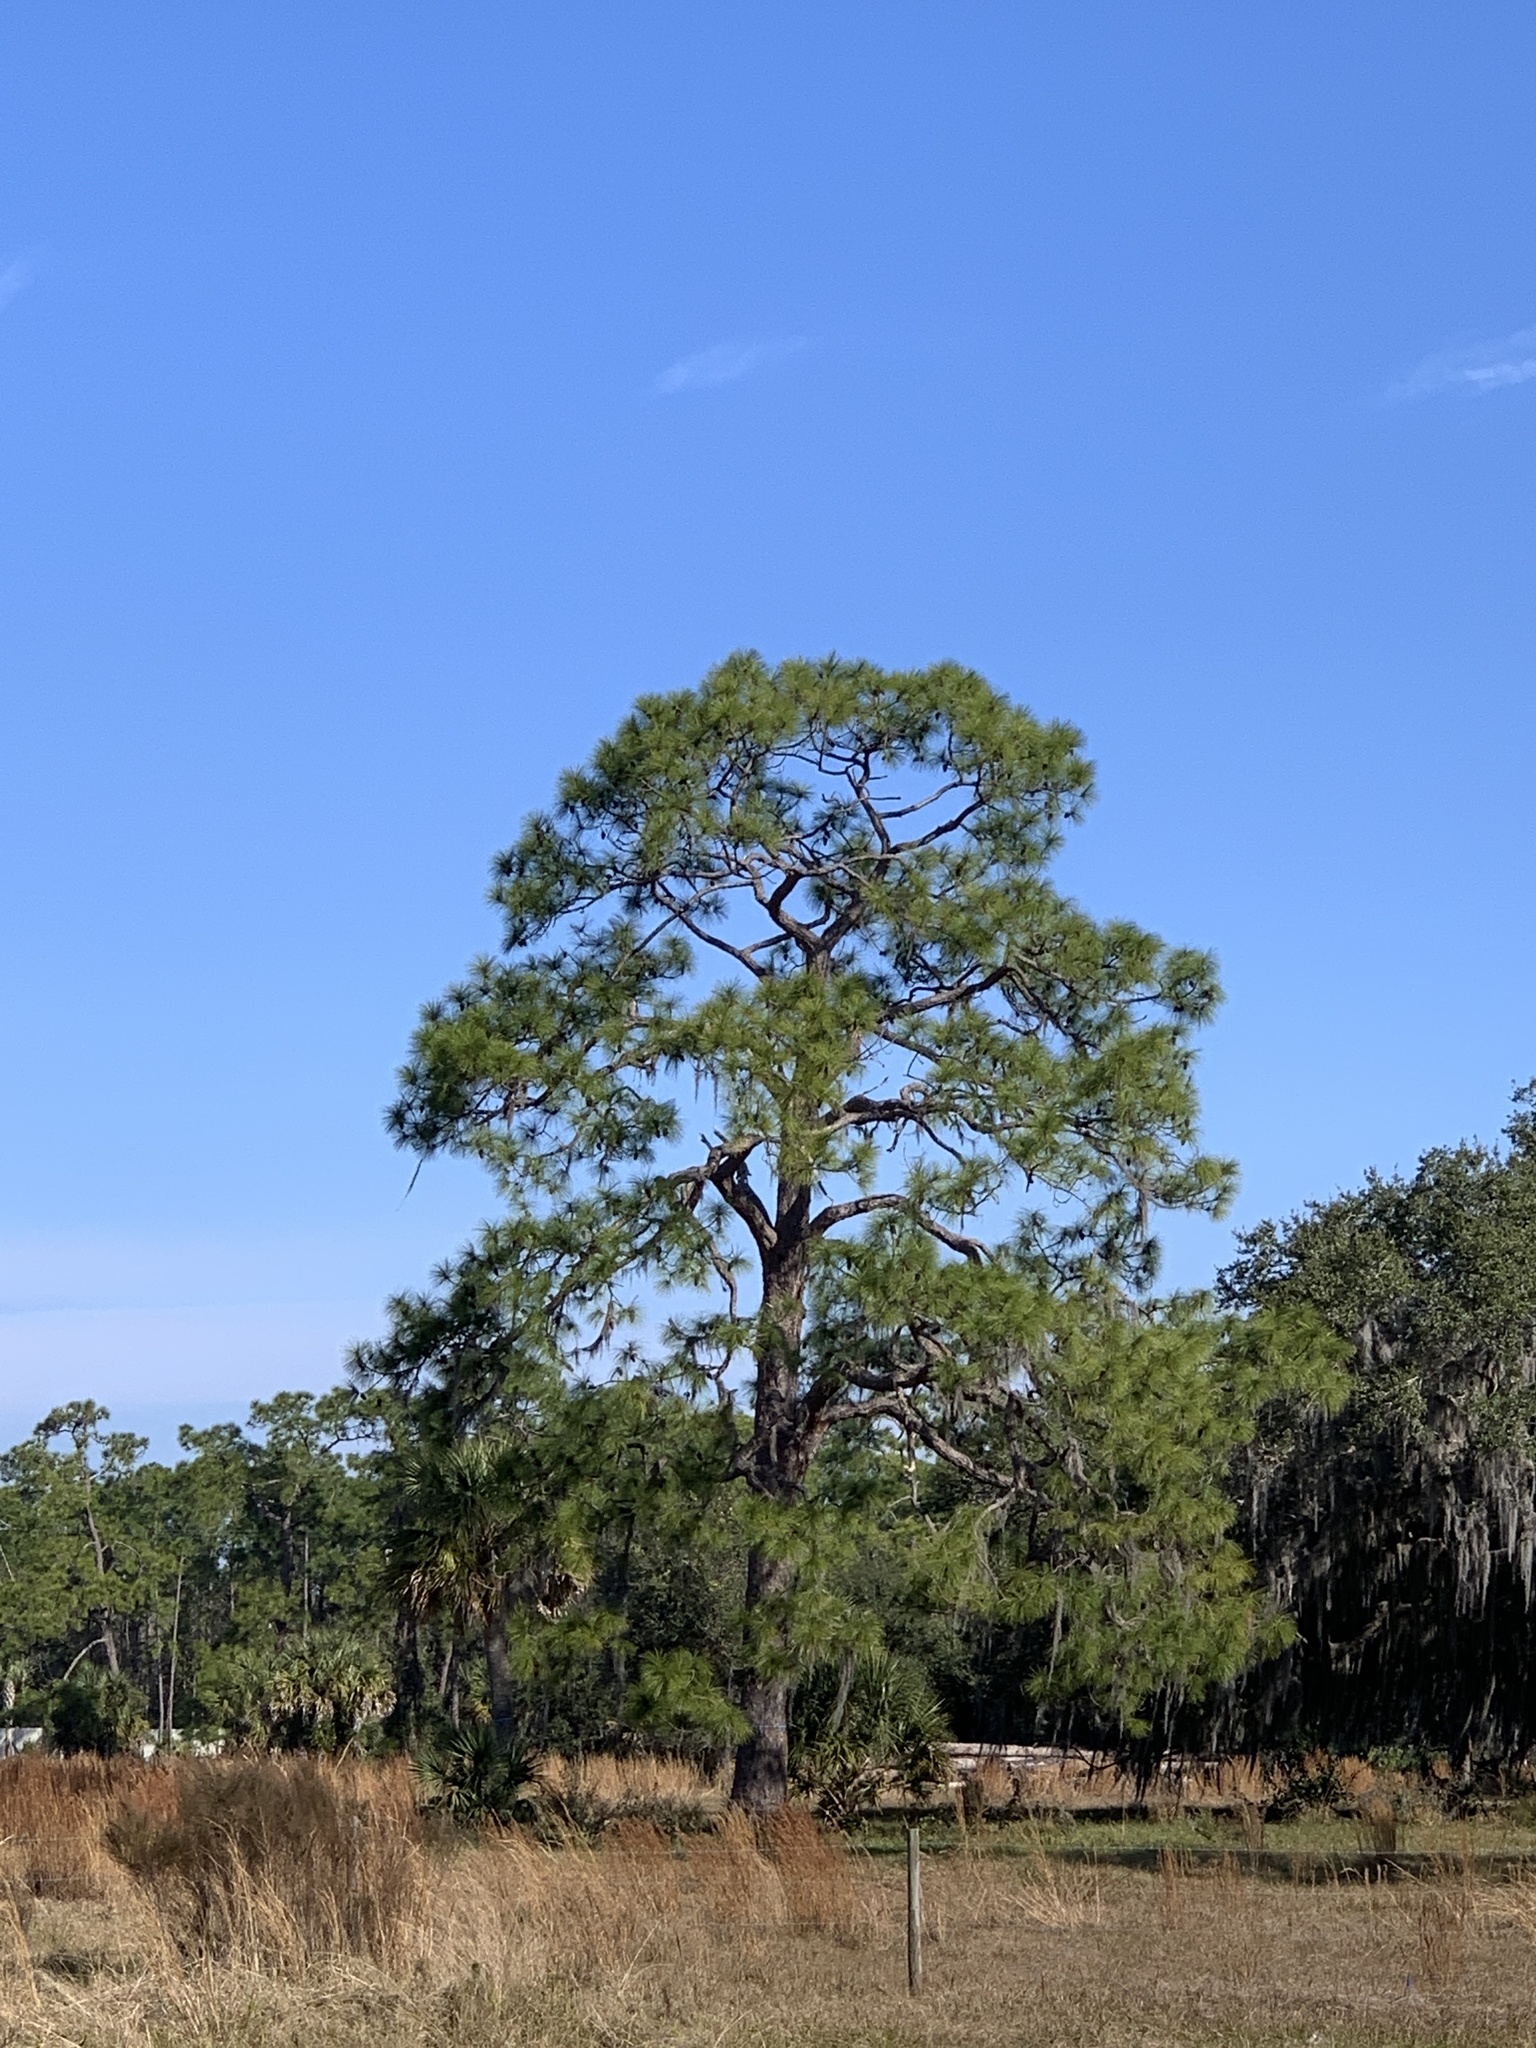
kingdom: Plantae
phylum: Tracheophyta
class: Pinopsida
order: Pinales
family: Pinaceae
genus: Pinus
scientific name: Pinus elliottii
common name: Slash pine
